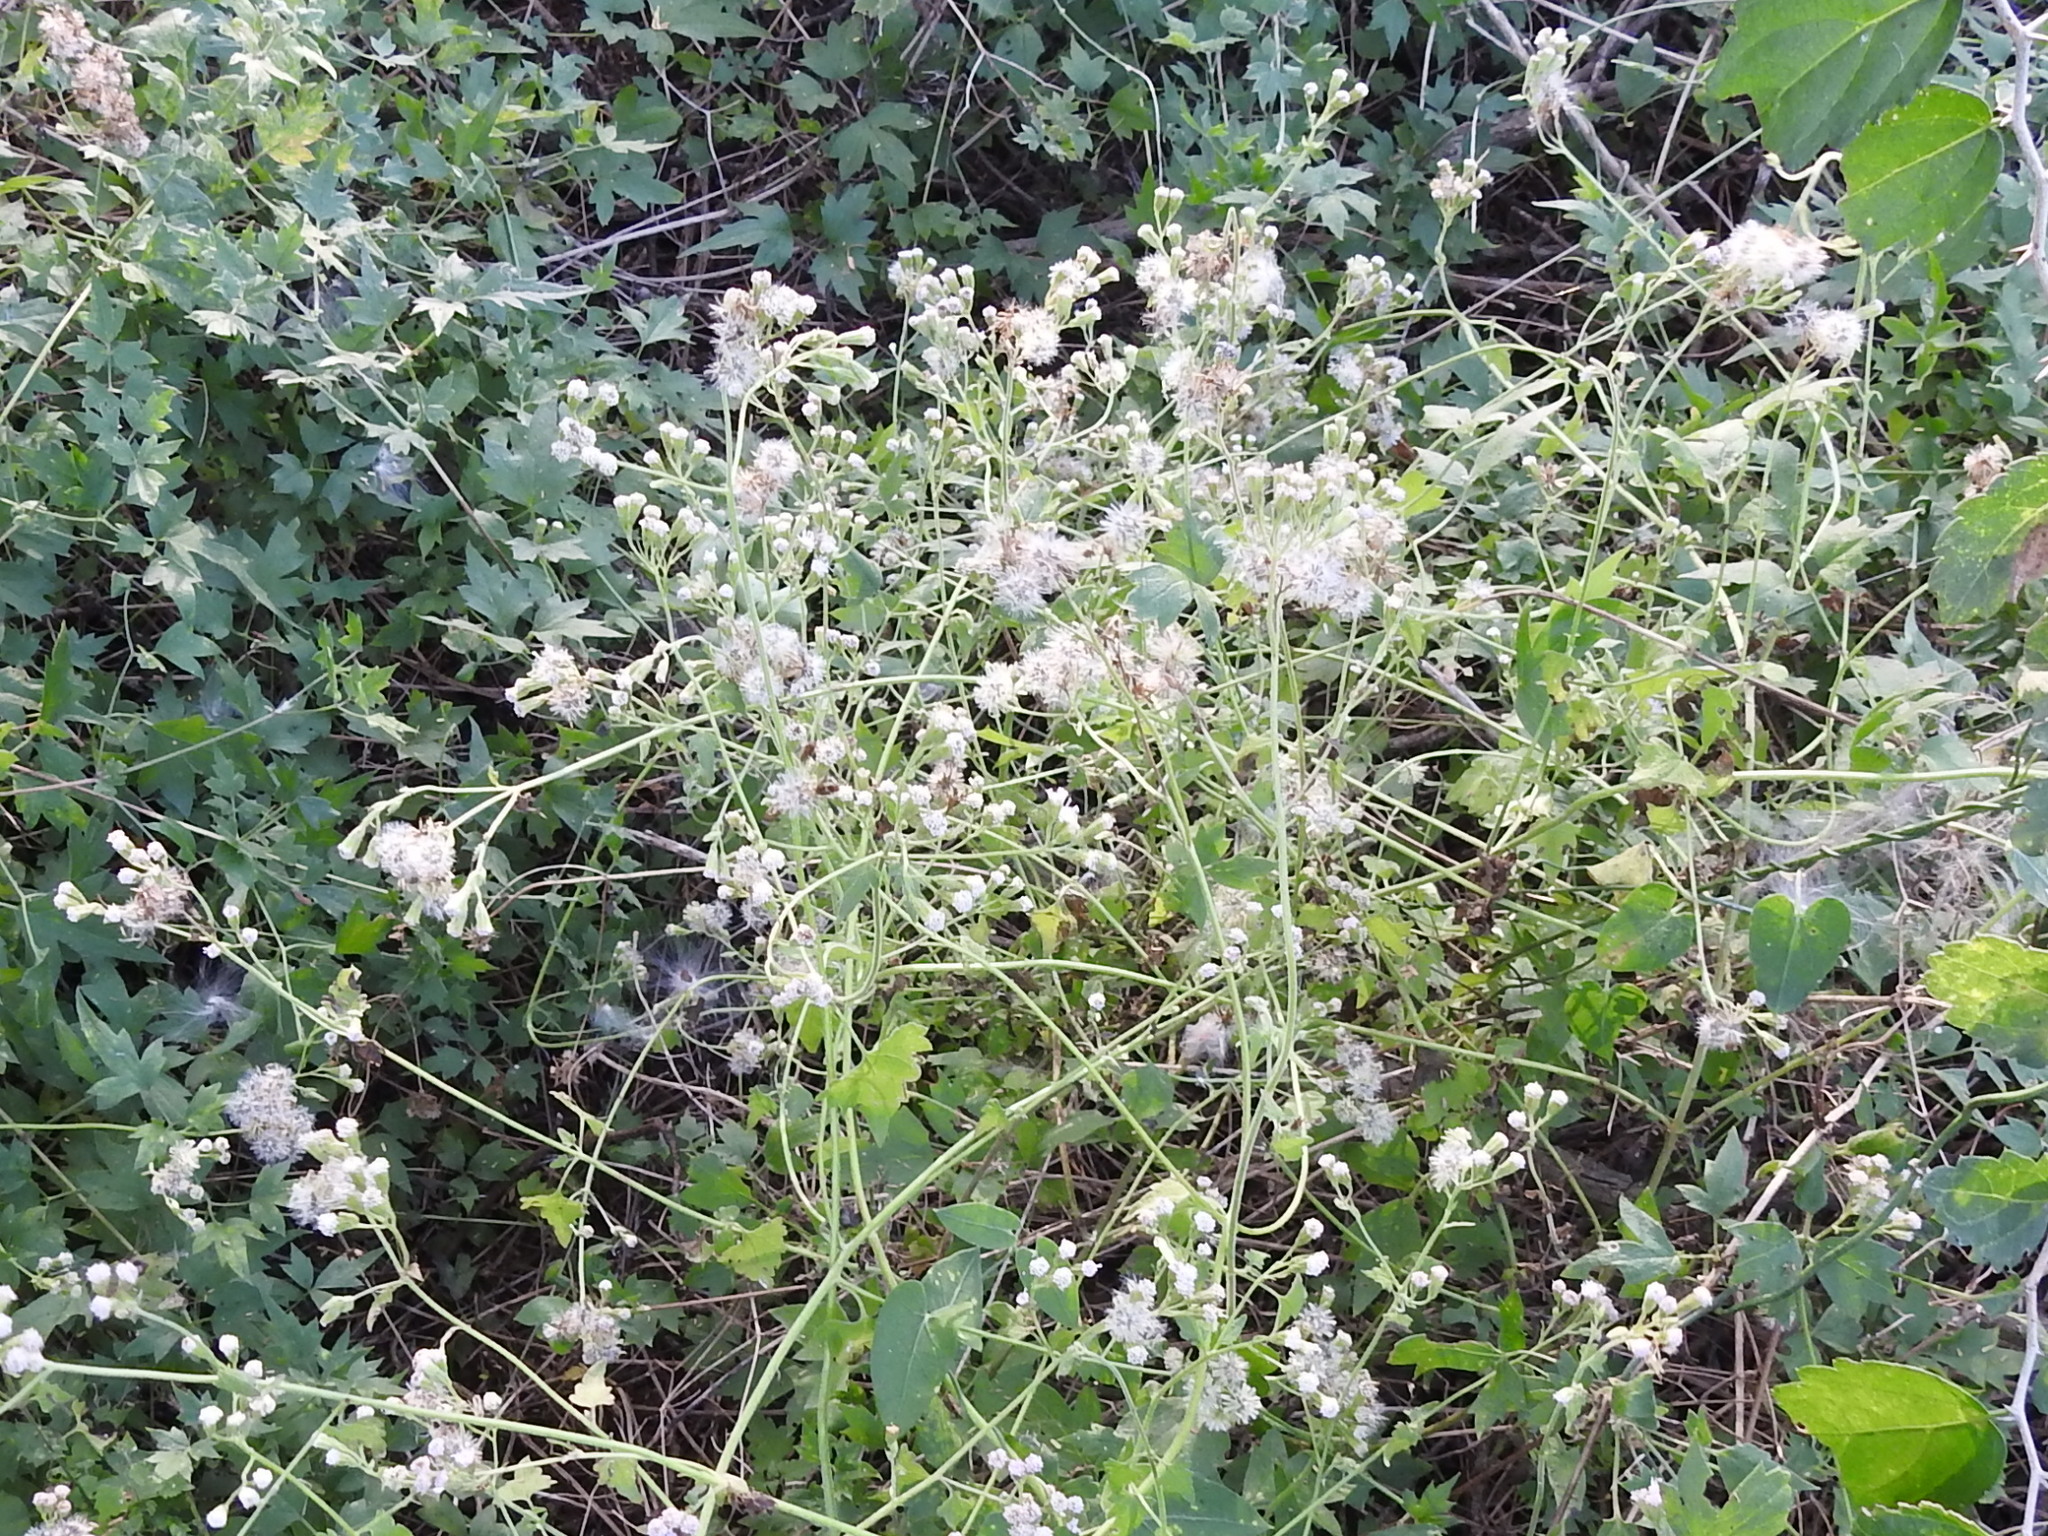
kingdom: Plantae
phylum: Tracheophyta
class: Magnoliopsida
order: Asterales
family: Asteraceae
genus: Fleischmannia
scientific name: Fleischmannia incarnata
